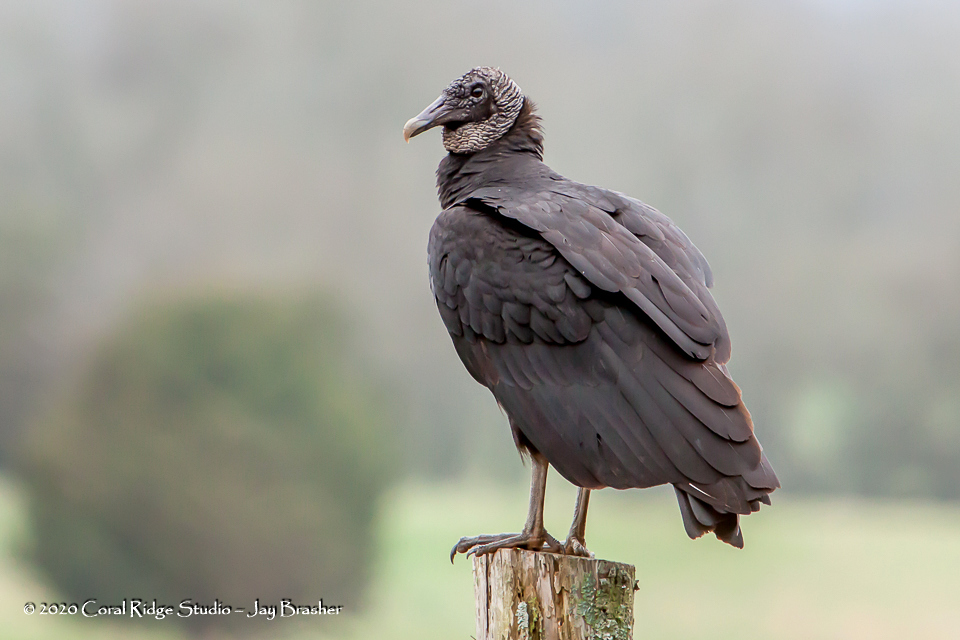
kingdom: Animalia
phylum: Chordata
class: Aves
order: Accipitriformes
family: Cathartidae
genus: Coragyps
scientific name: Coragyps atratus
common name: Black vulture
